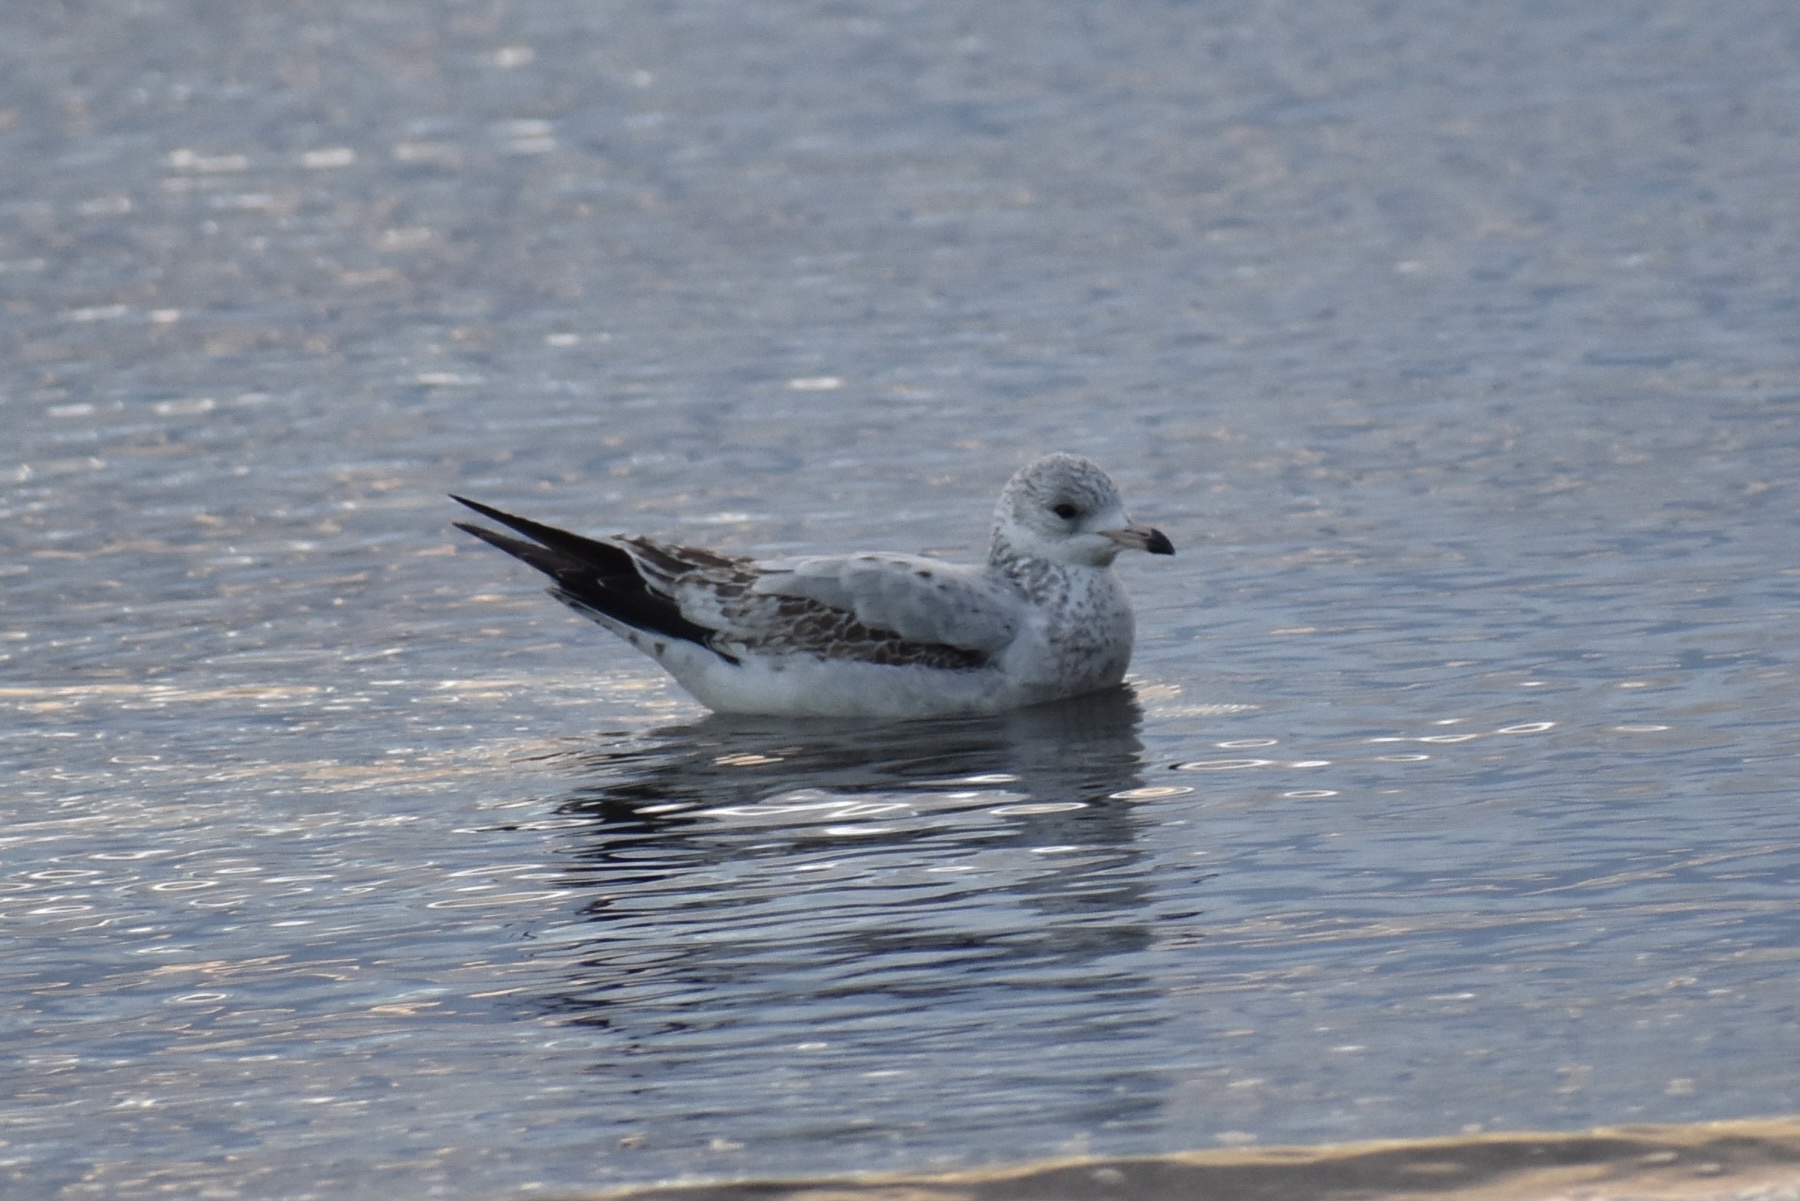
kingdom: Animalia
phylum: Chordata
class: Aves
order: Charadriiformes
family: Laridae
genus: Larus
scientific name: Larus delawarensis
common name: Ring-billed gull
